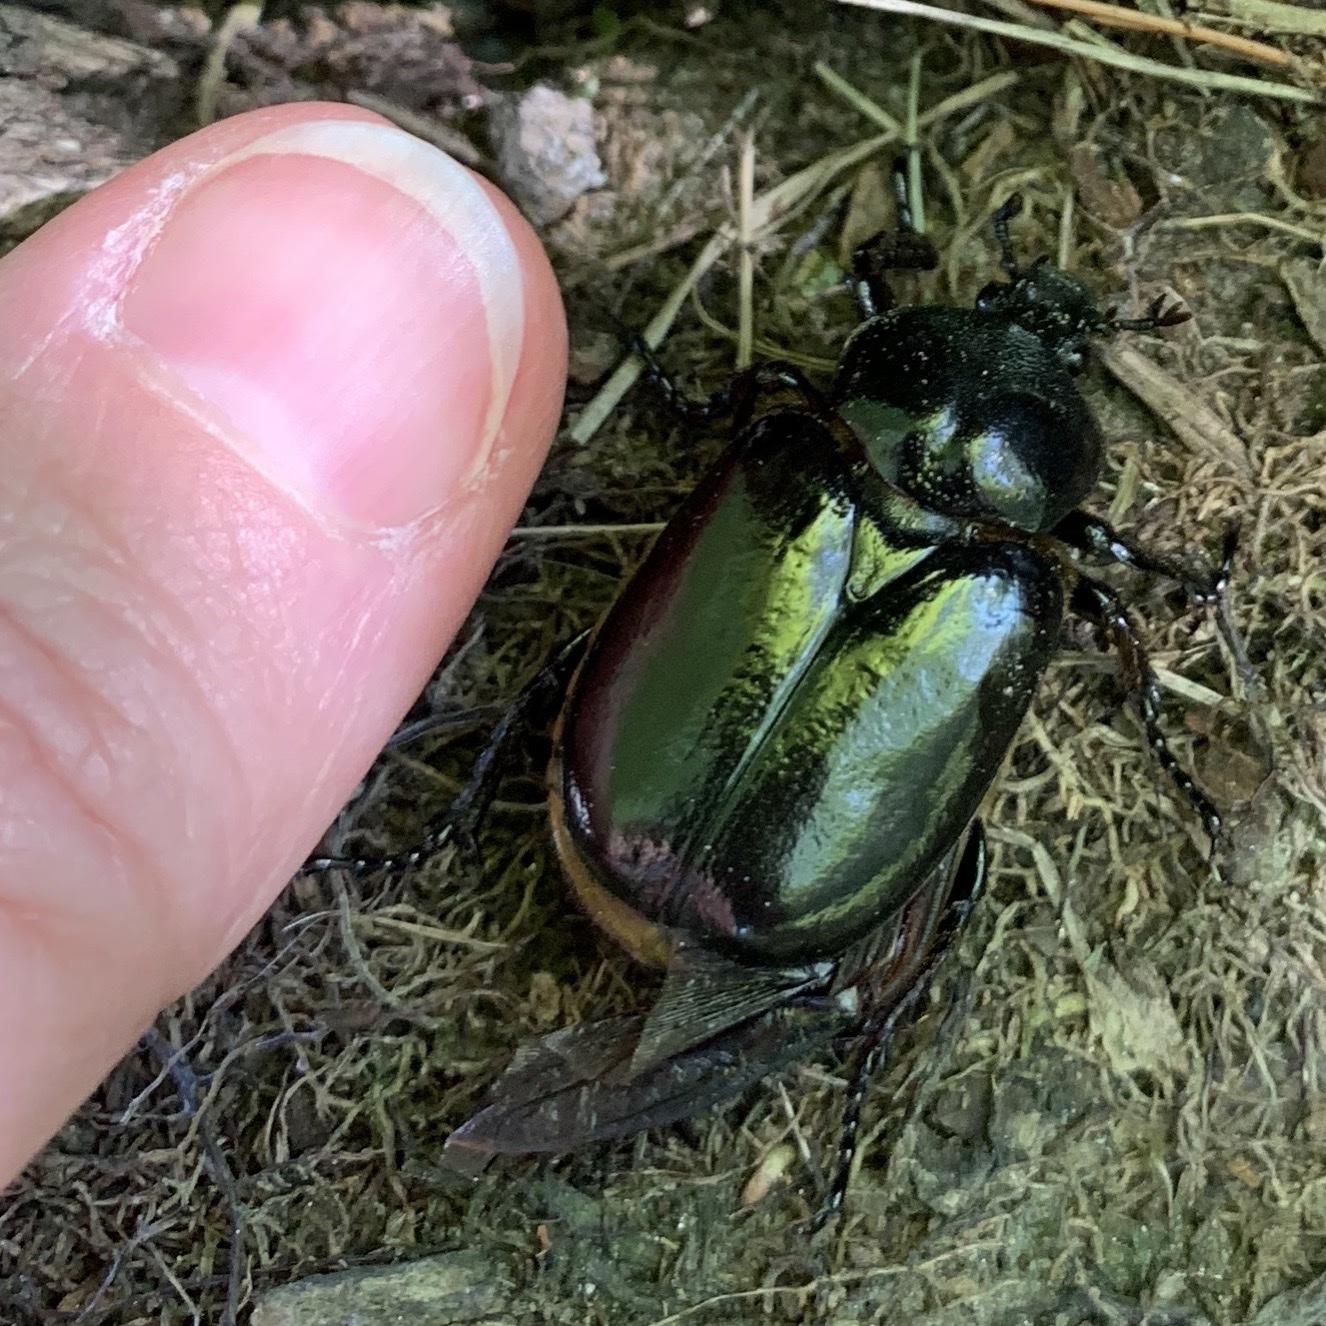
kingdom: Animalia
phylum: Arthropoda
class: Insecta
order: Coleoptera
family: Scarabaeidae
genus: Osmoderma
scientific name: Osmoderma eremicola
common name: Hermit flower beetle
